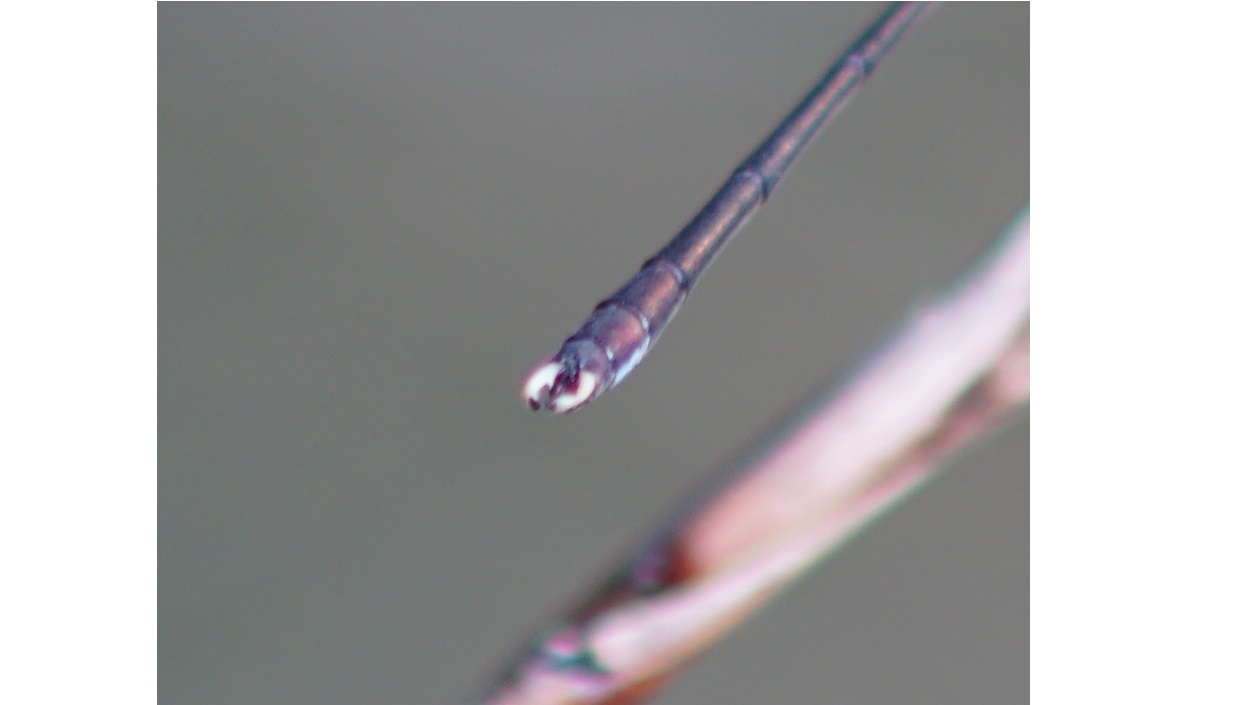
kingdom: Animalia
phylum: Arthropoda
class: Insecta
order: Odonata
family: Lestidae
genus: Chalcolestes
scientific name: Chalcolestes parvidens
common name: Eastern willow spreadwing
